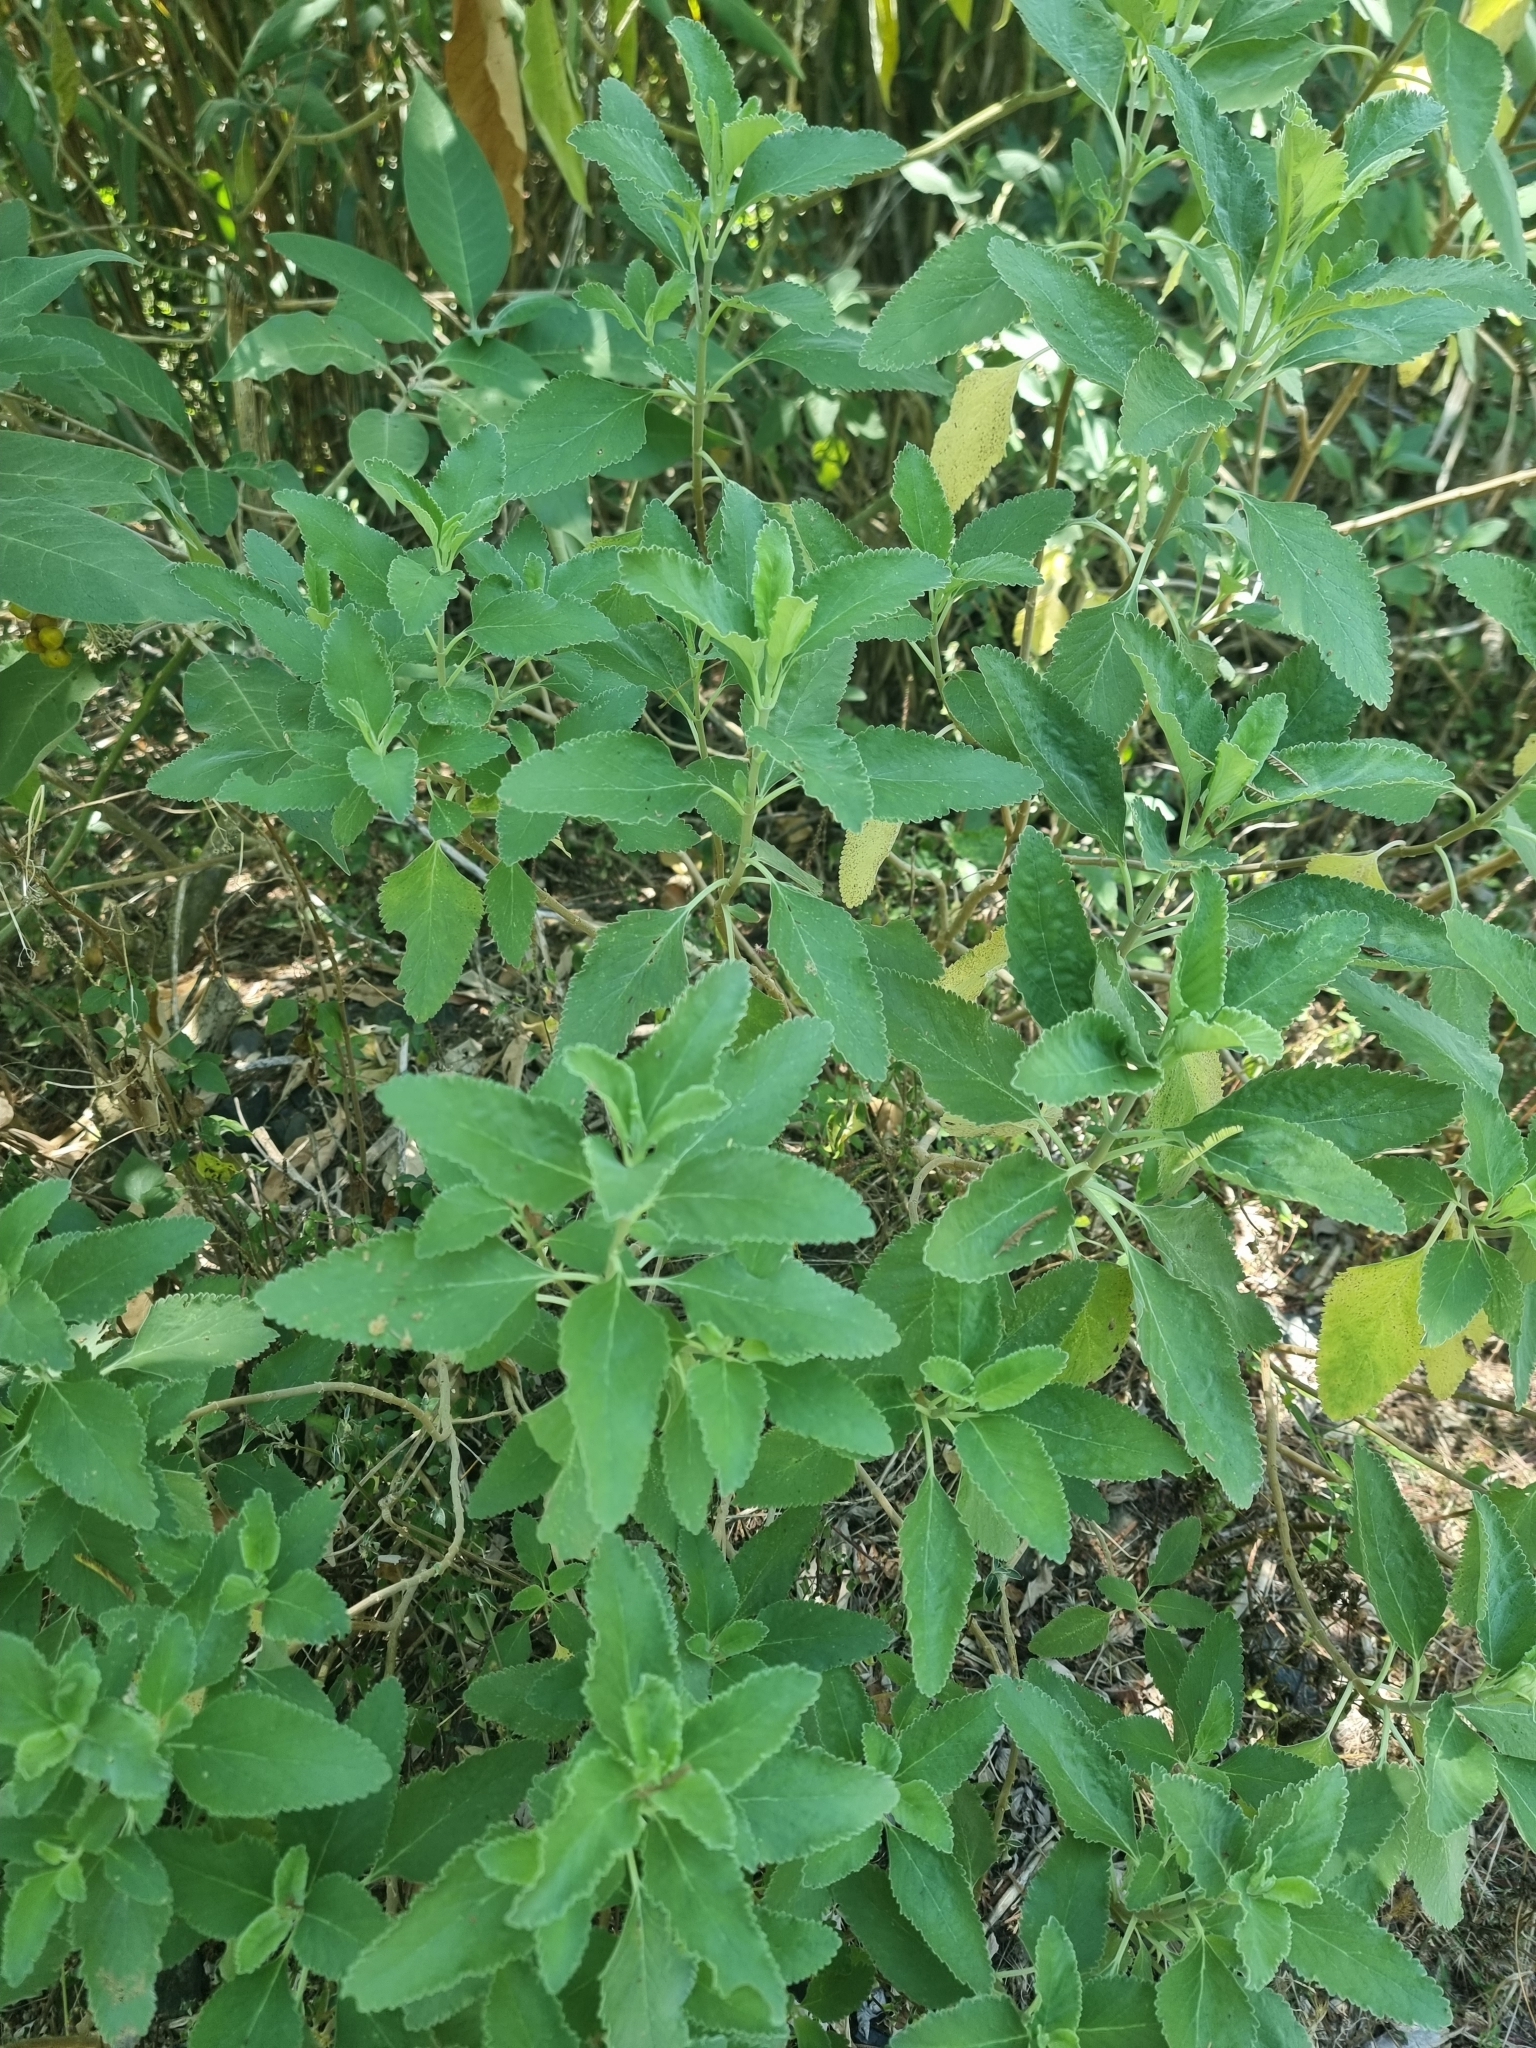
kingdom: Plantae
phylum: Tracheophyta
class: Magnoliopsida
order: Lamiales
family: Lamiaceae
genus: Teucrium
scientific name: Teucrium betonicum
